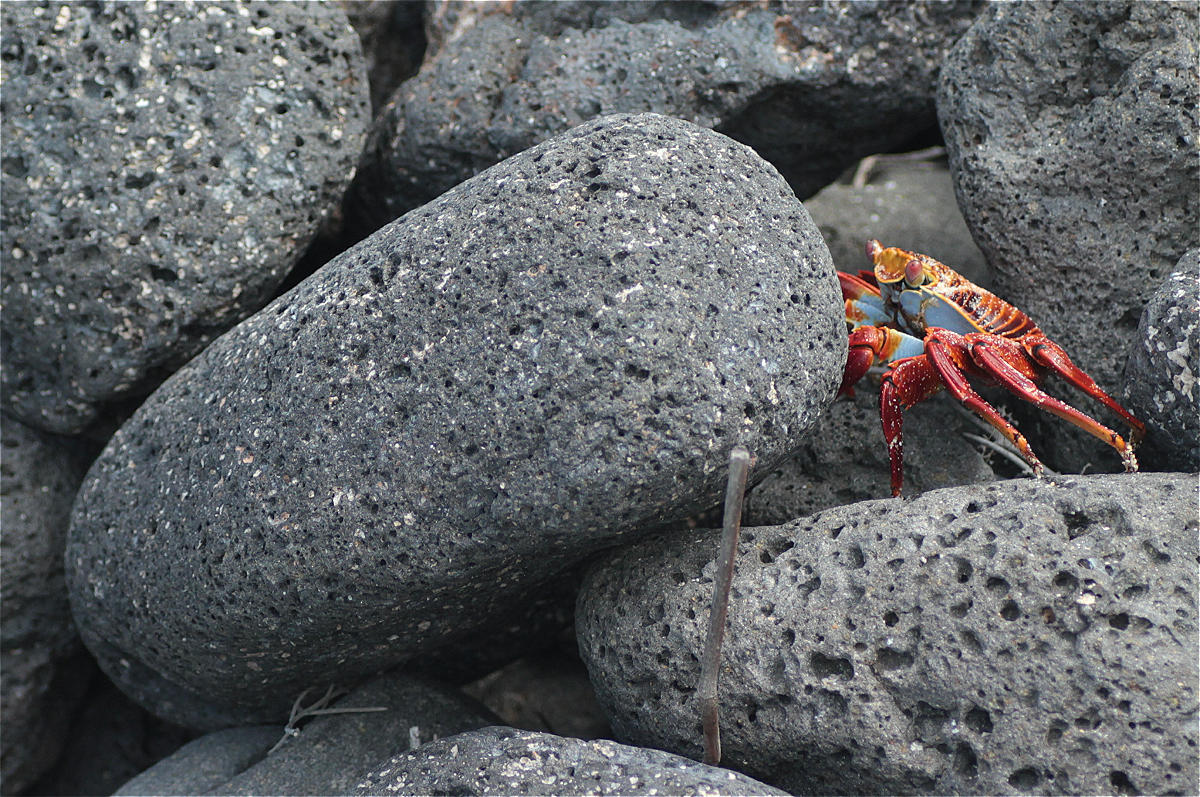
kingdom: Animalia
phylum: Arthropoda
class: Malacostraca
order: Decapoda
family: Grapsidae
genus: Grapsus
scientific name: Grapsus grapsus
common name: Sally lightfoot
